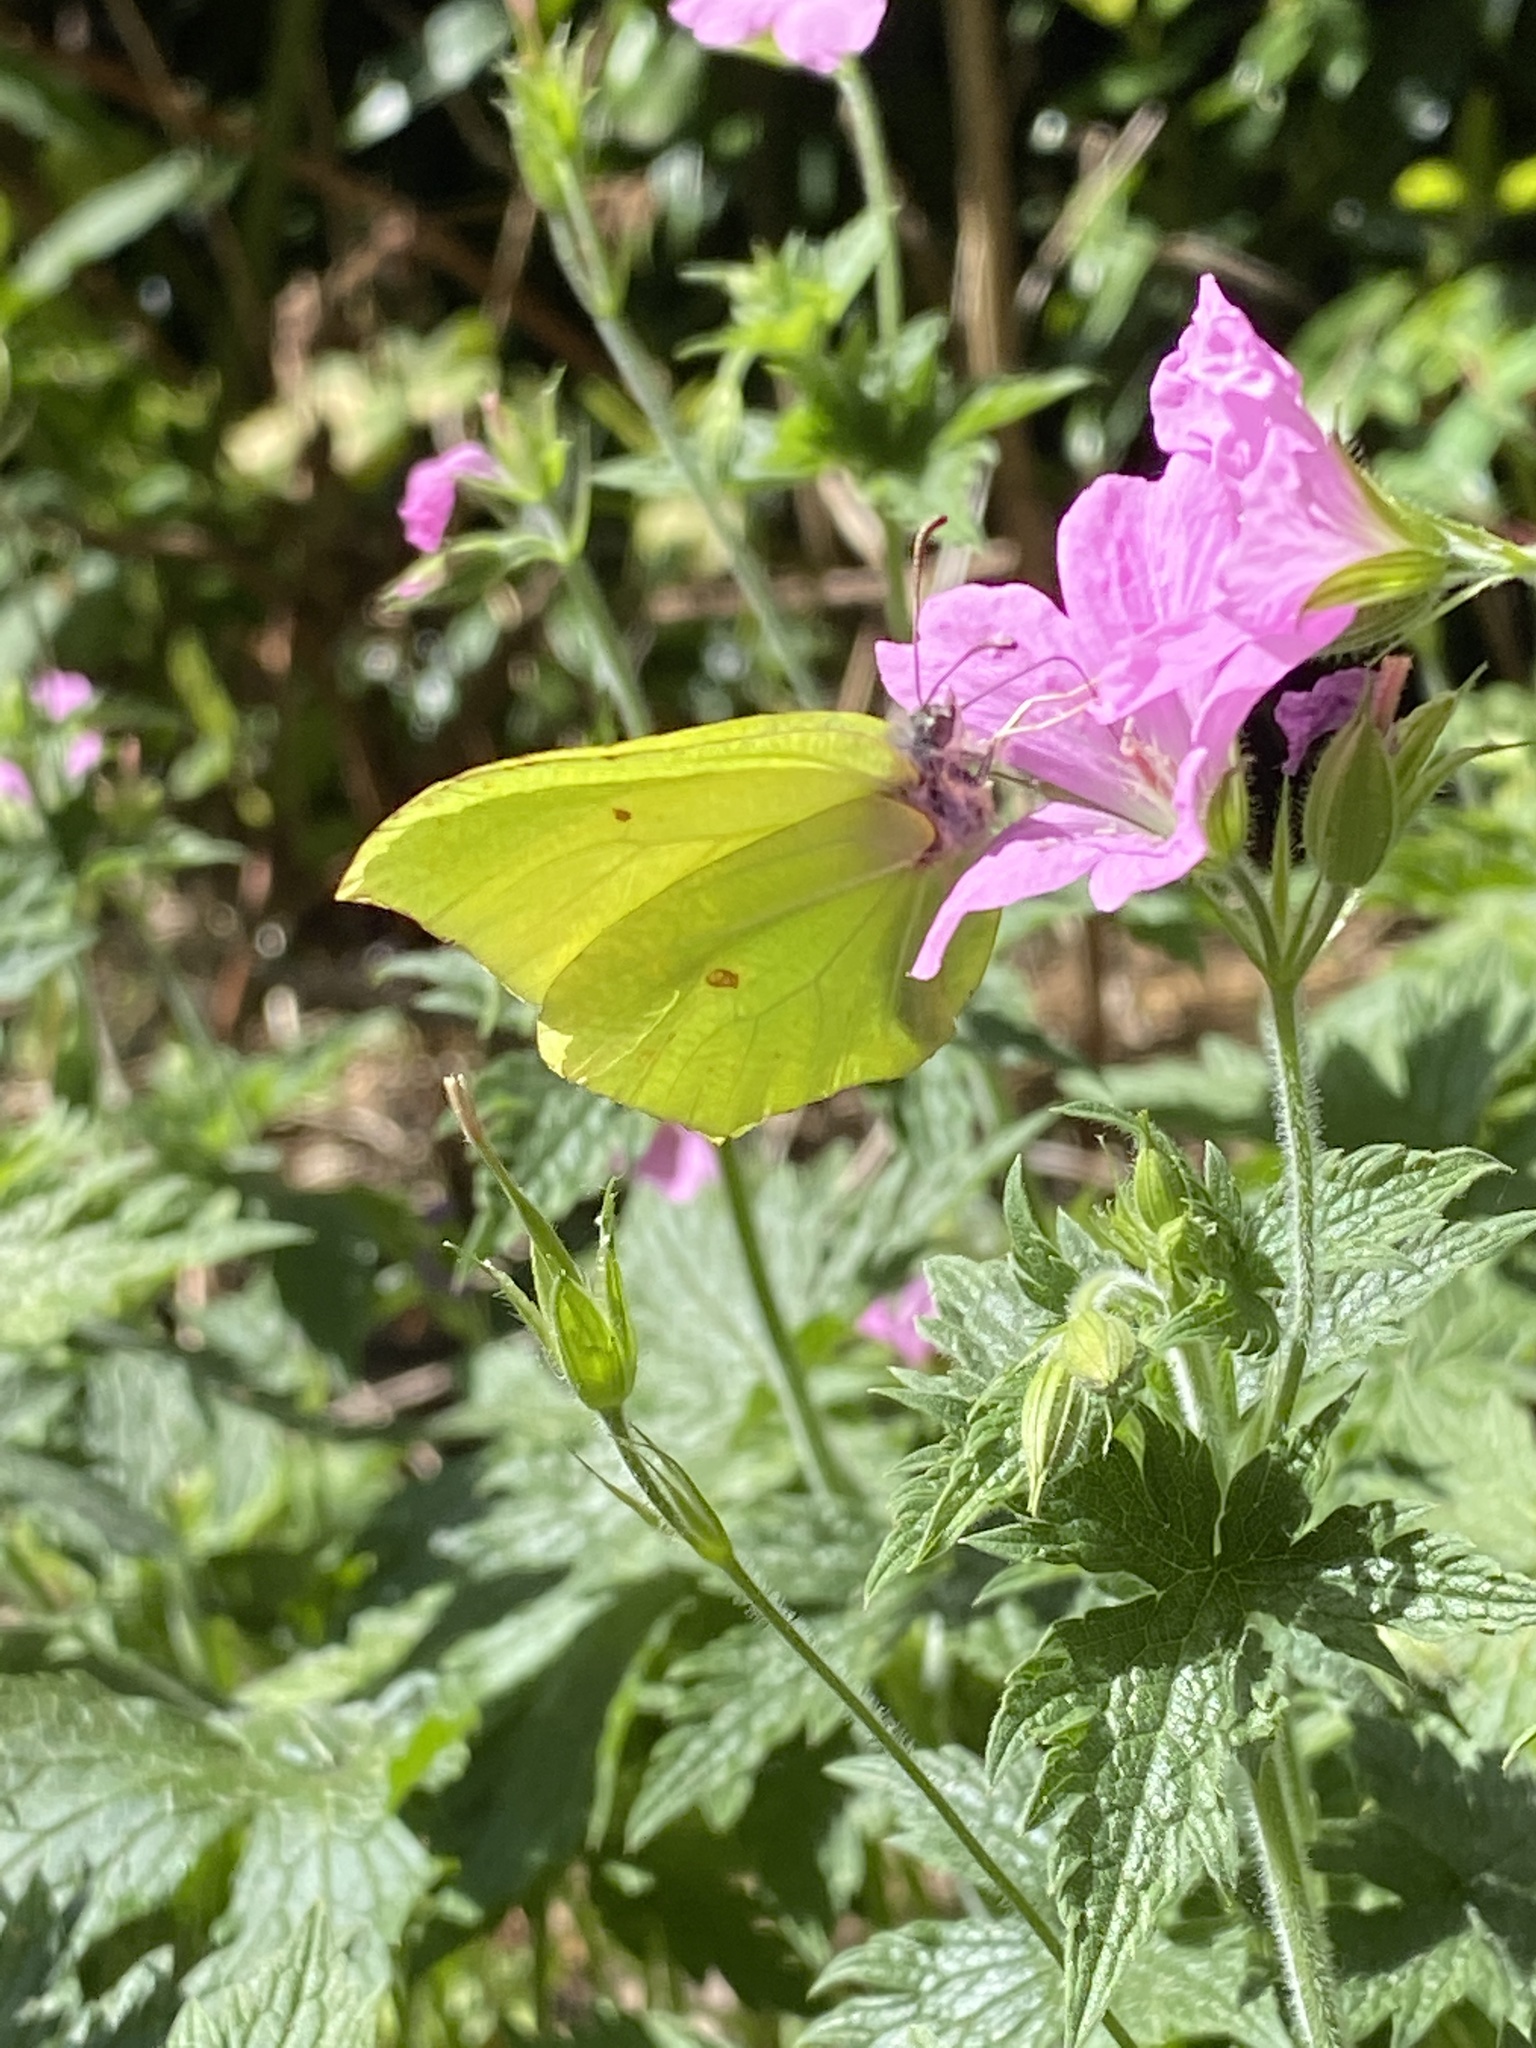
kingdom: Animalia
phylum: Arthropoda
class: Insecta
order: Lepidoptera
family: Pieridae
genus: Gonepteryx
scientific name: Gonepteryx rhamni
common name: Brimstone
